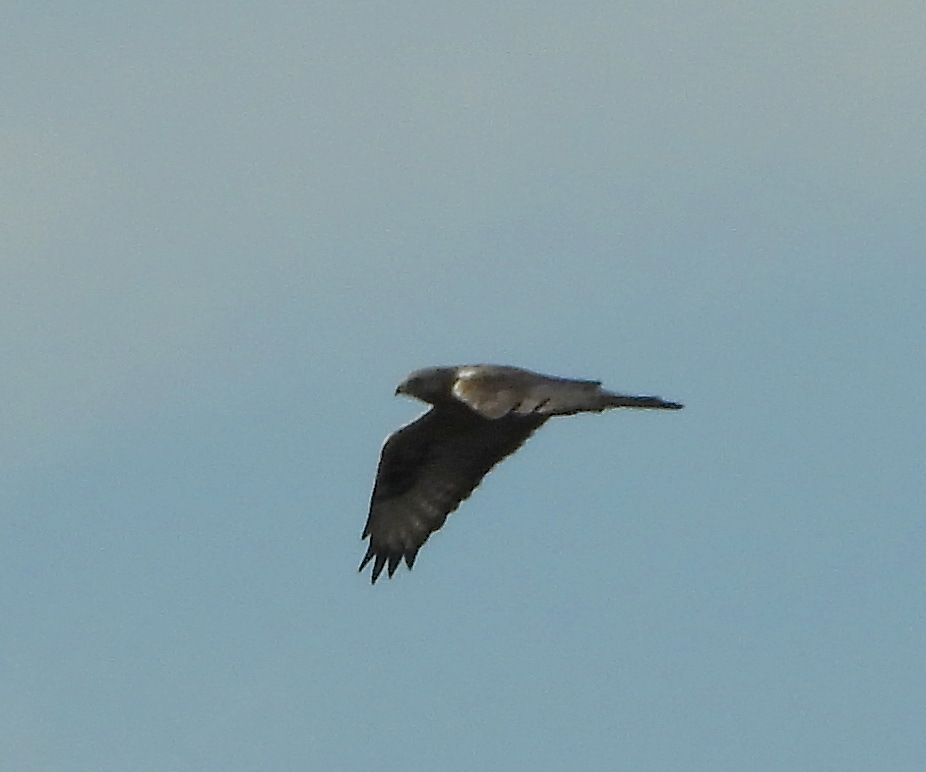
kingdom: Animalia
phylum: Chordata
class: Aves
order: Accipitriformes
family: Accipitridae
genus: Buteo
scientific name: Buteo lagopus
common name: Rough-legged buzzard
